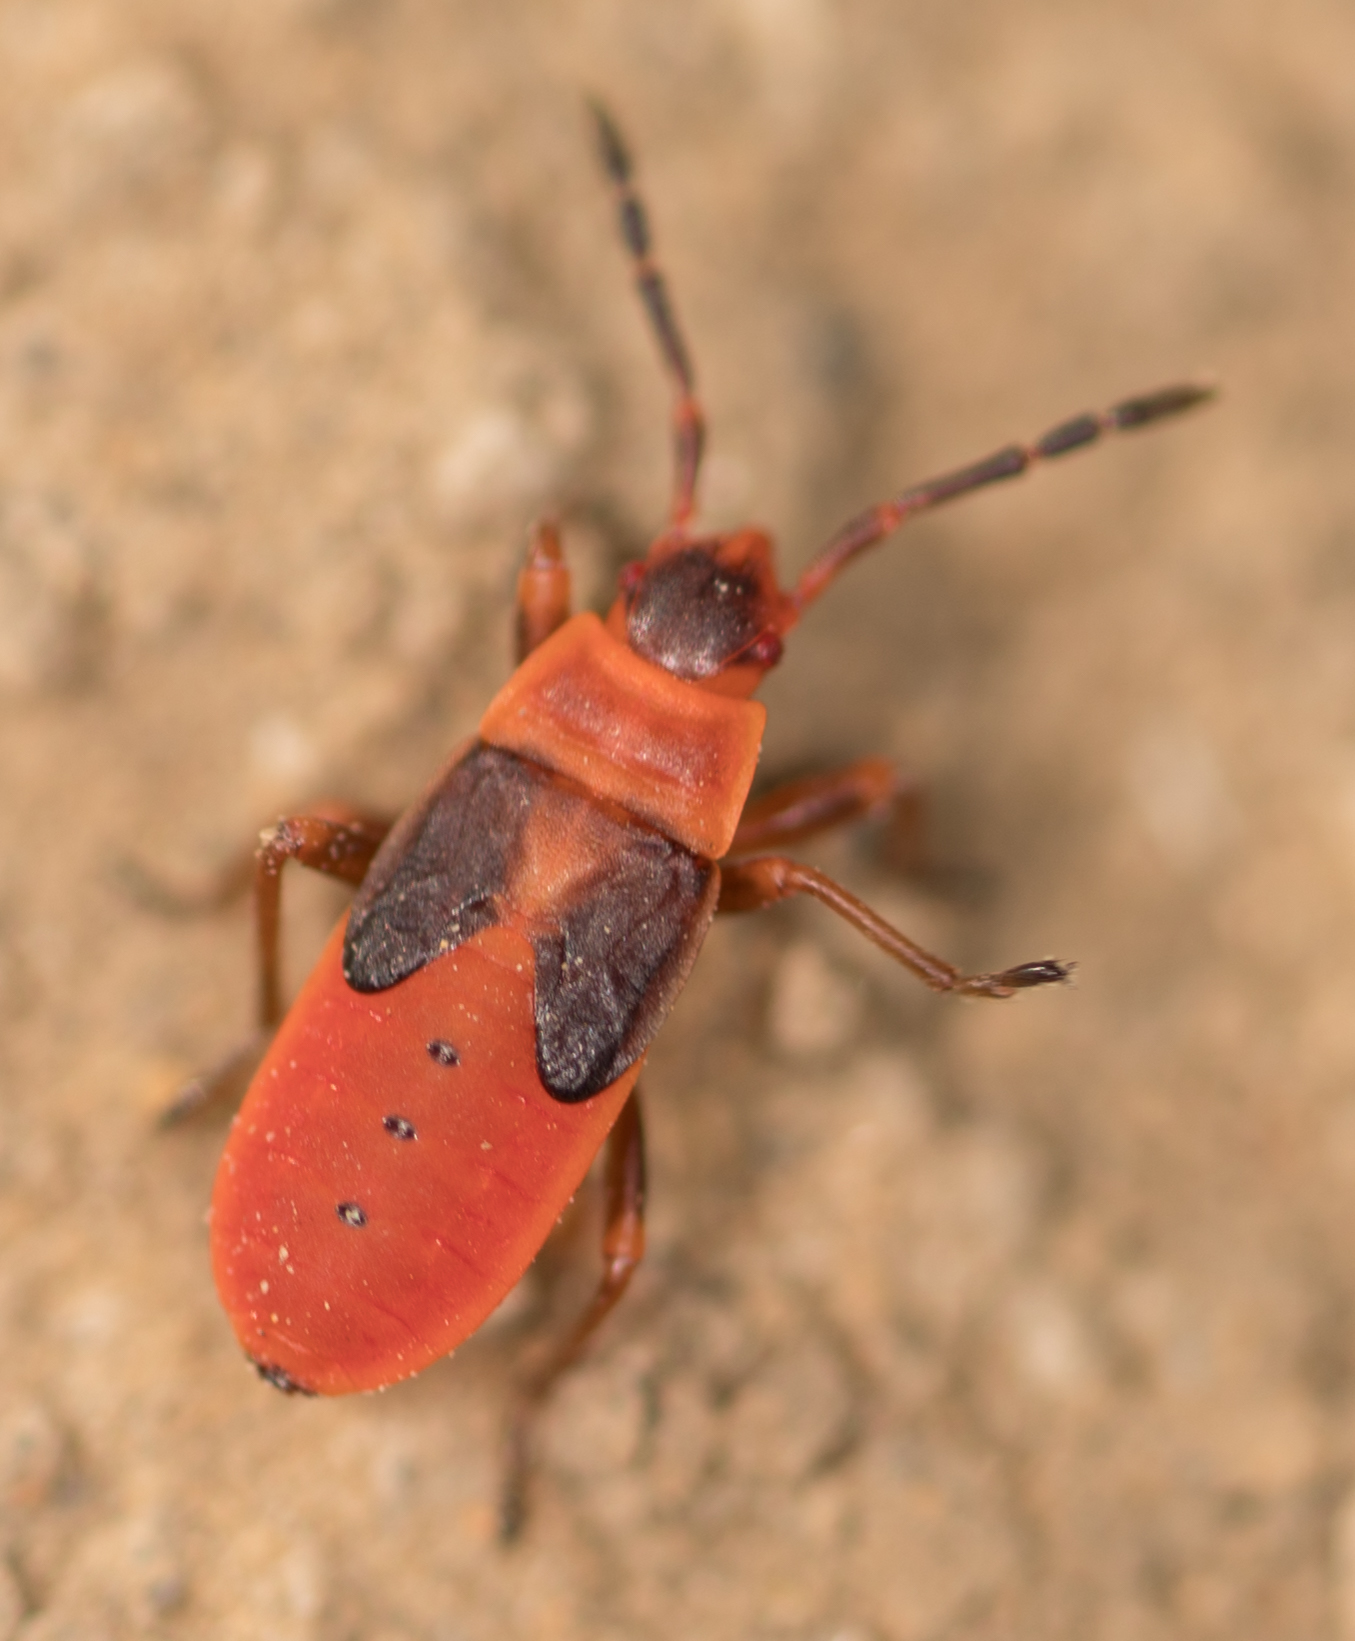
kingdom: Animalia
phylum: Arthropoda
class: Insecta
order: Hemiptera
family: Pyrrhocoridae
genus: Scantius
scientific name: Scantius aegyptius
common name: Red bug
